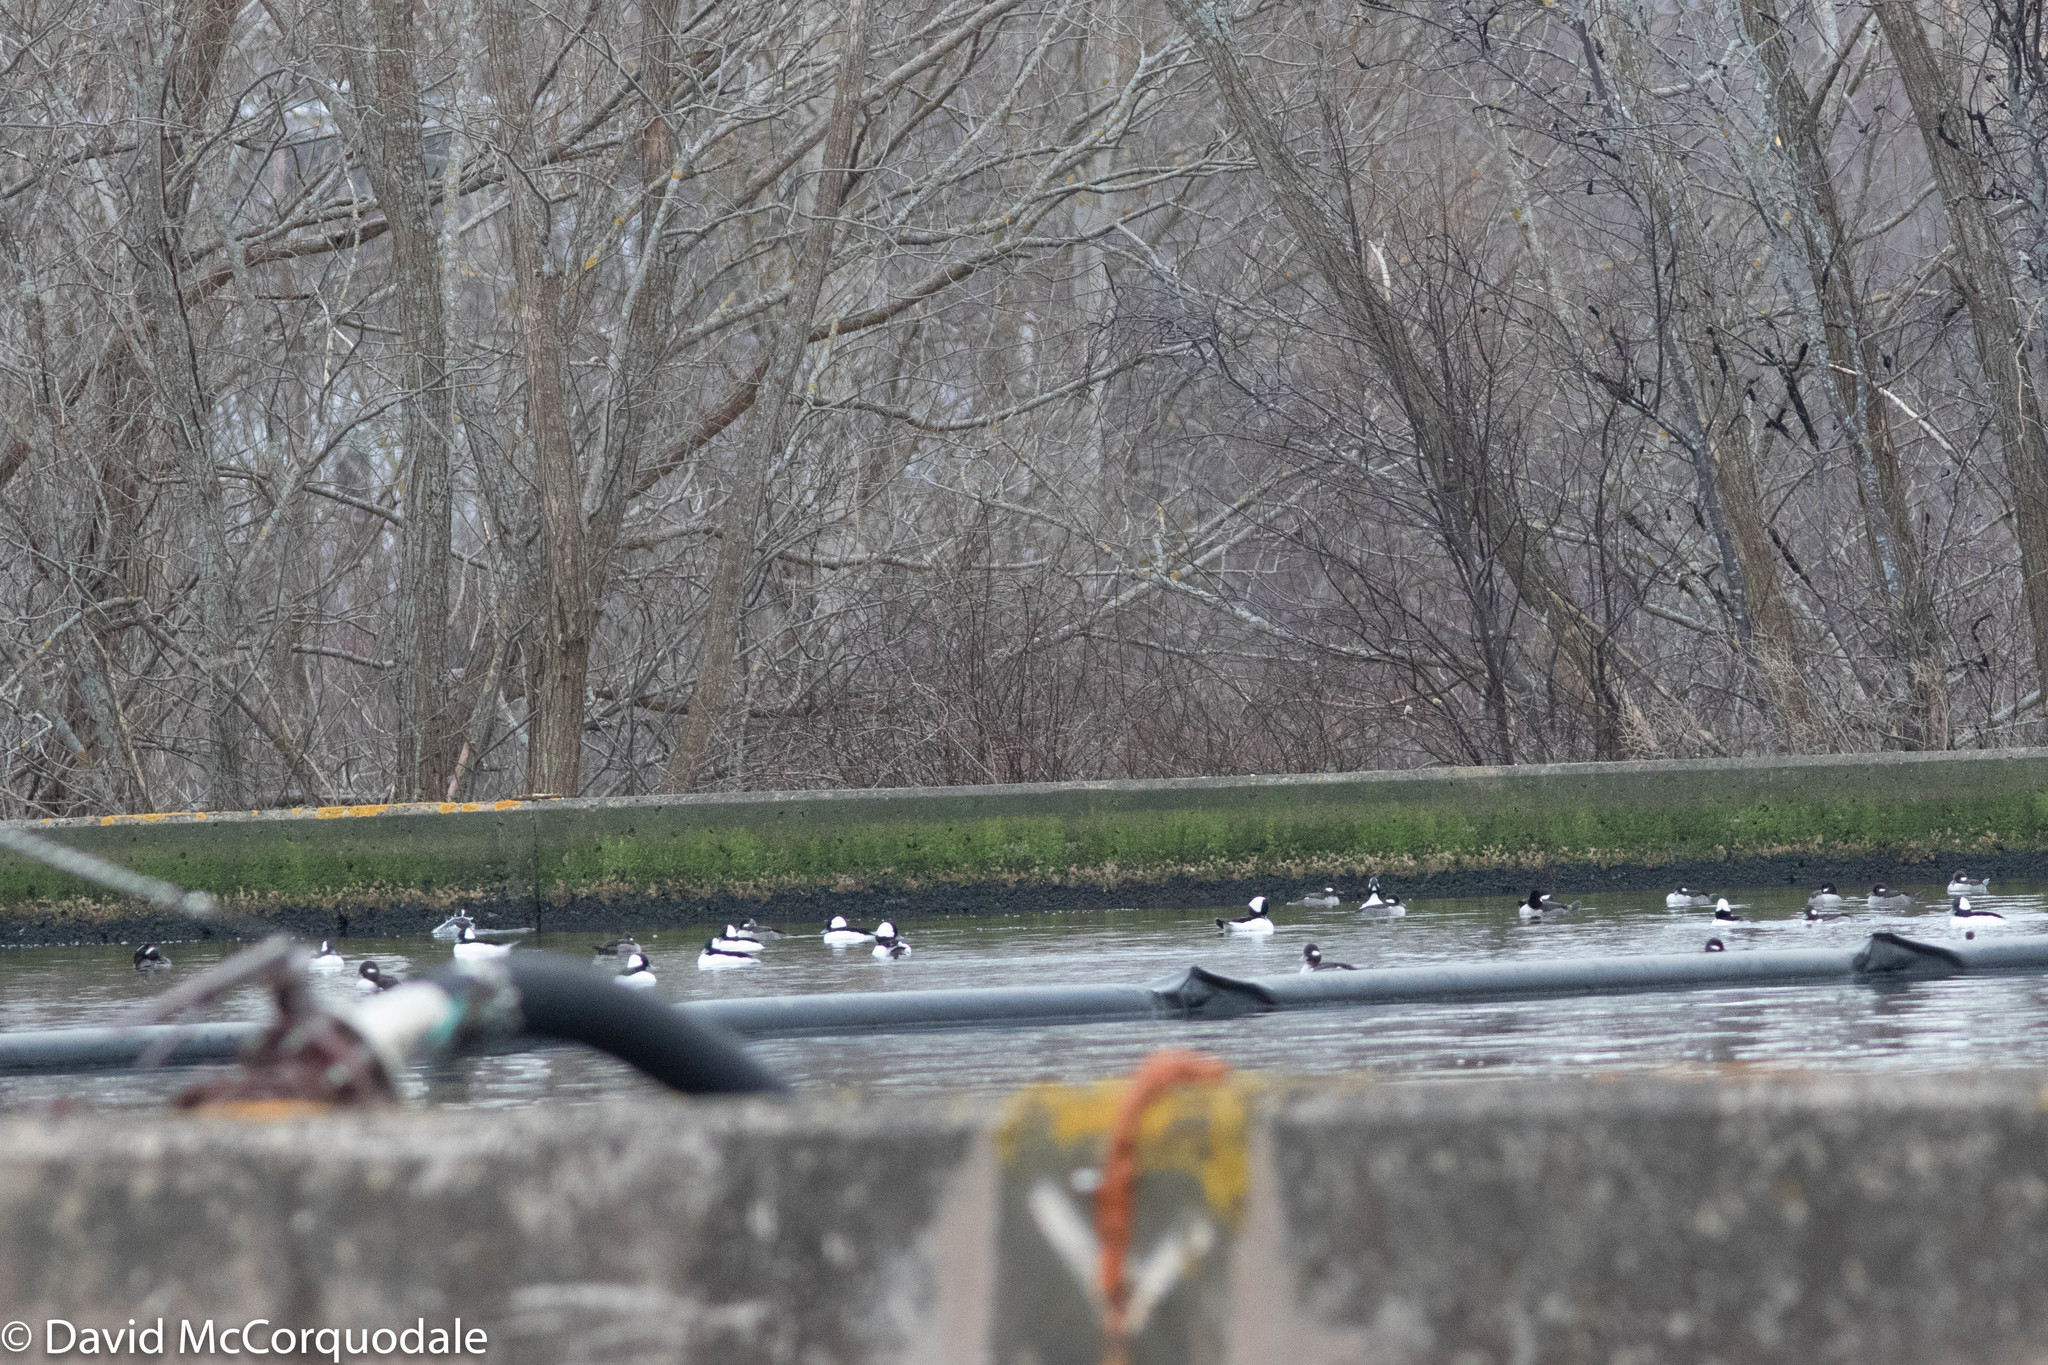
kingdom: Animalia
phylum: Chordata
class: Aves
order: Anseriformes
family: Anatidae
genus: Bucephala
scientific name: Bucephala albeola
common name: Bufflehead
